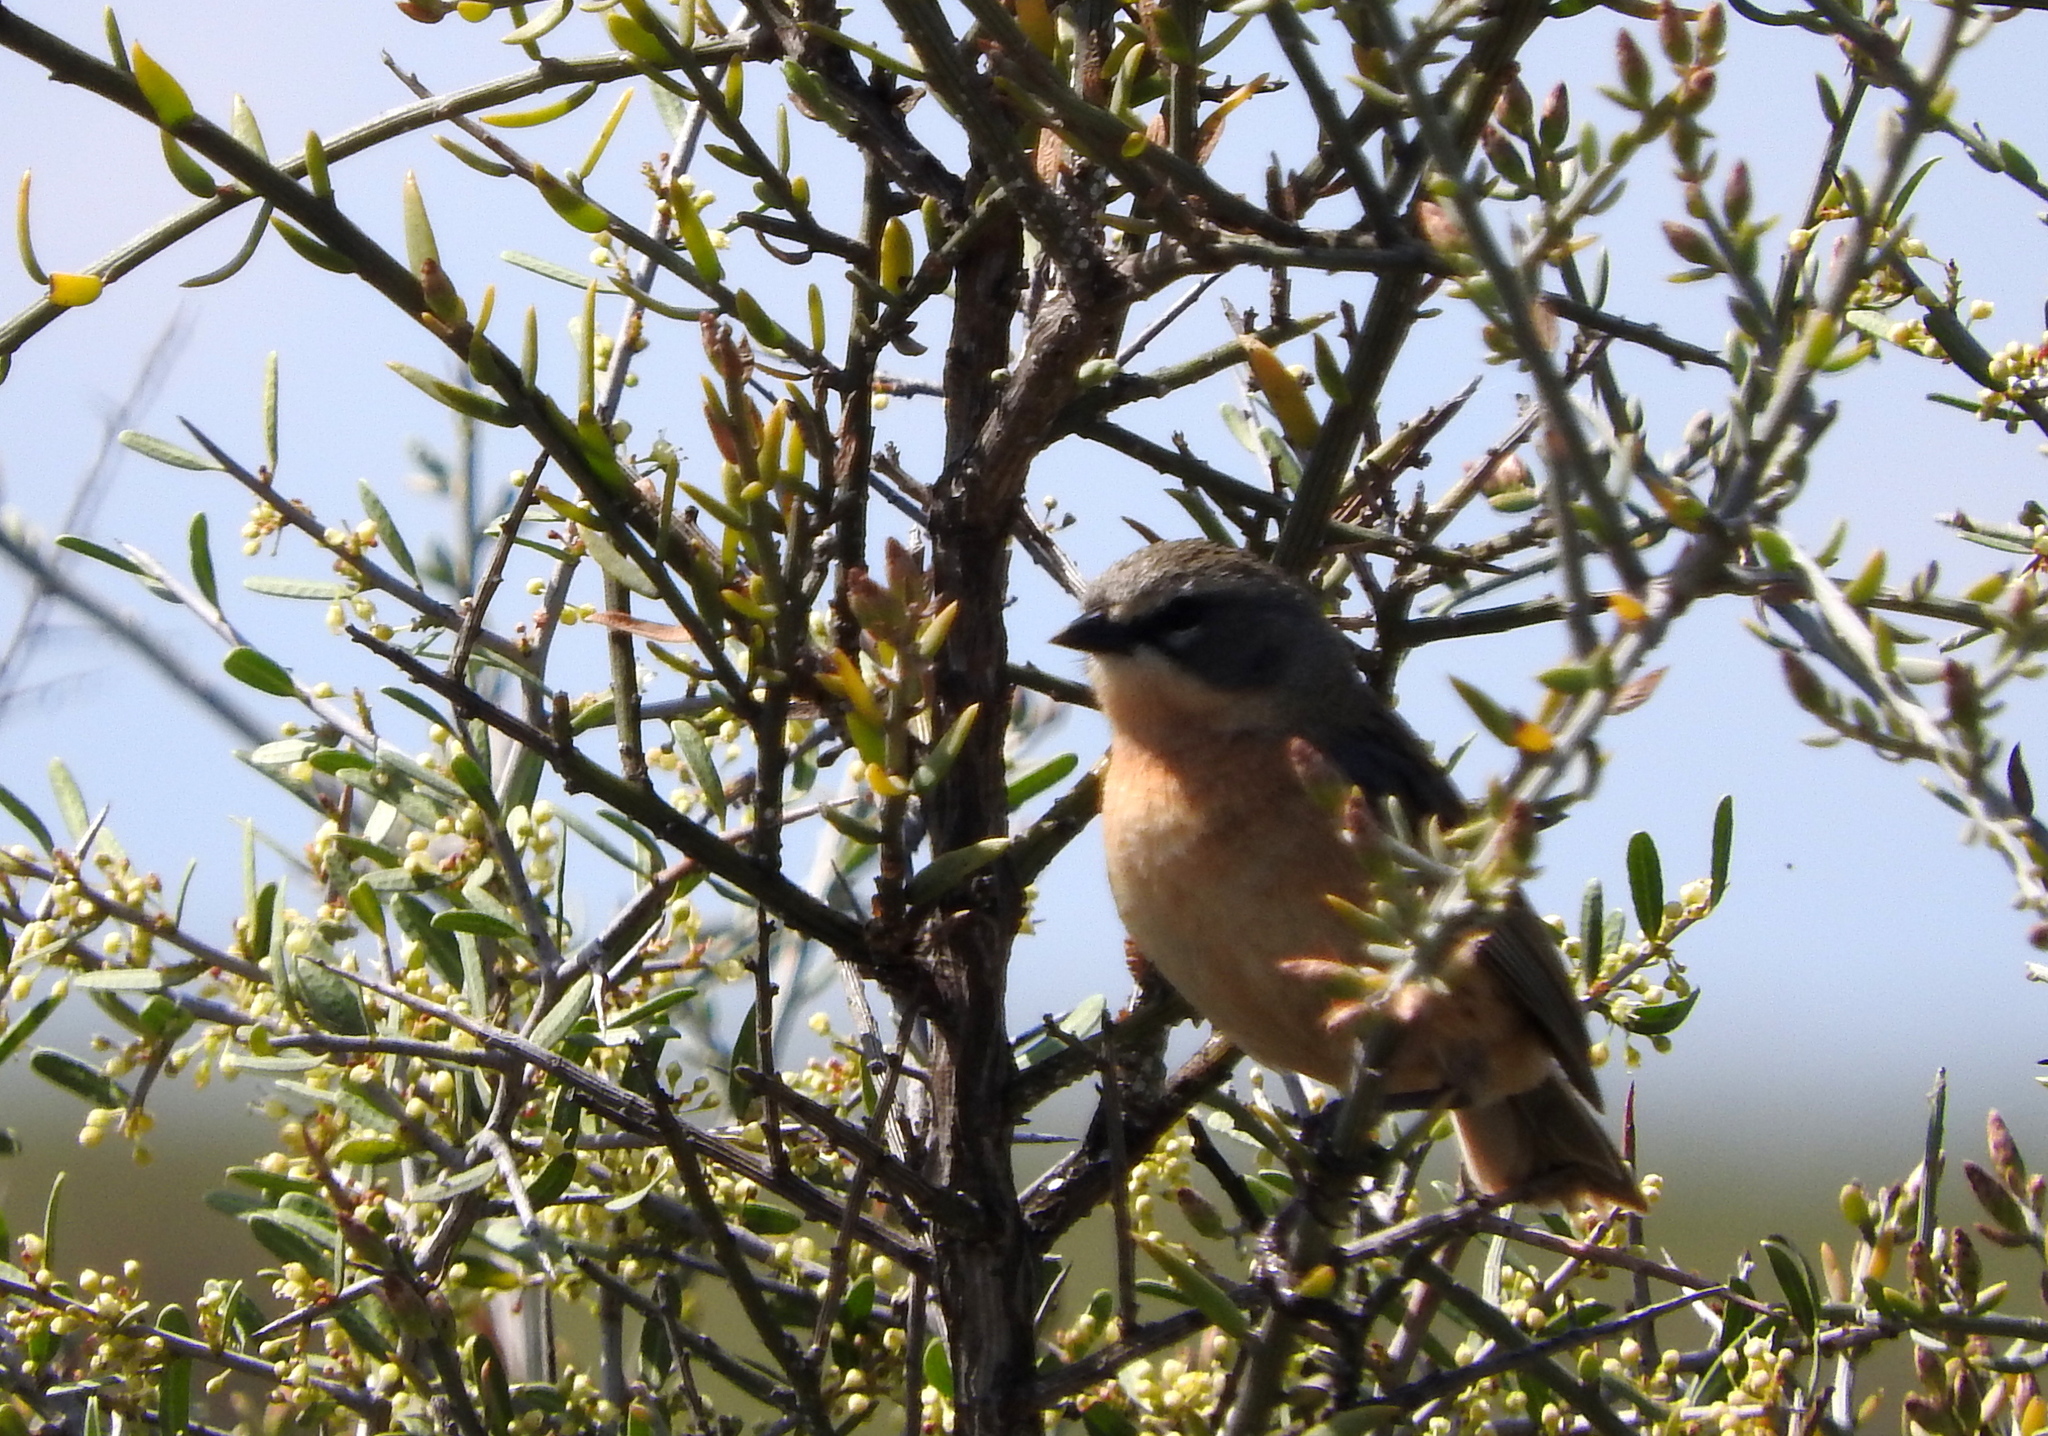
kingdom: Animalia
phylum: Chordata
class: Aves
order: Passeriformes
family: Thraupidae
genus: Donacospiza
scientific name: Donacospiza albifrons
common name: Long-tailed reed finch
